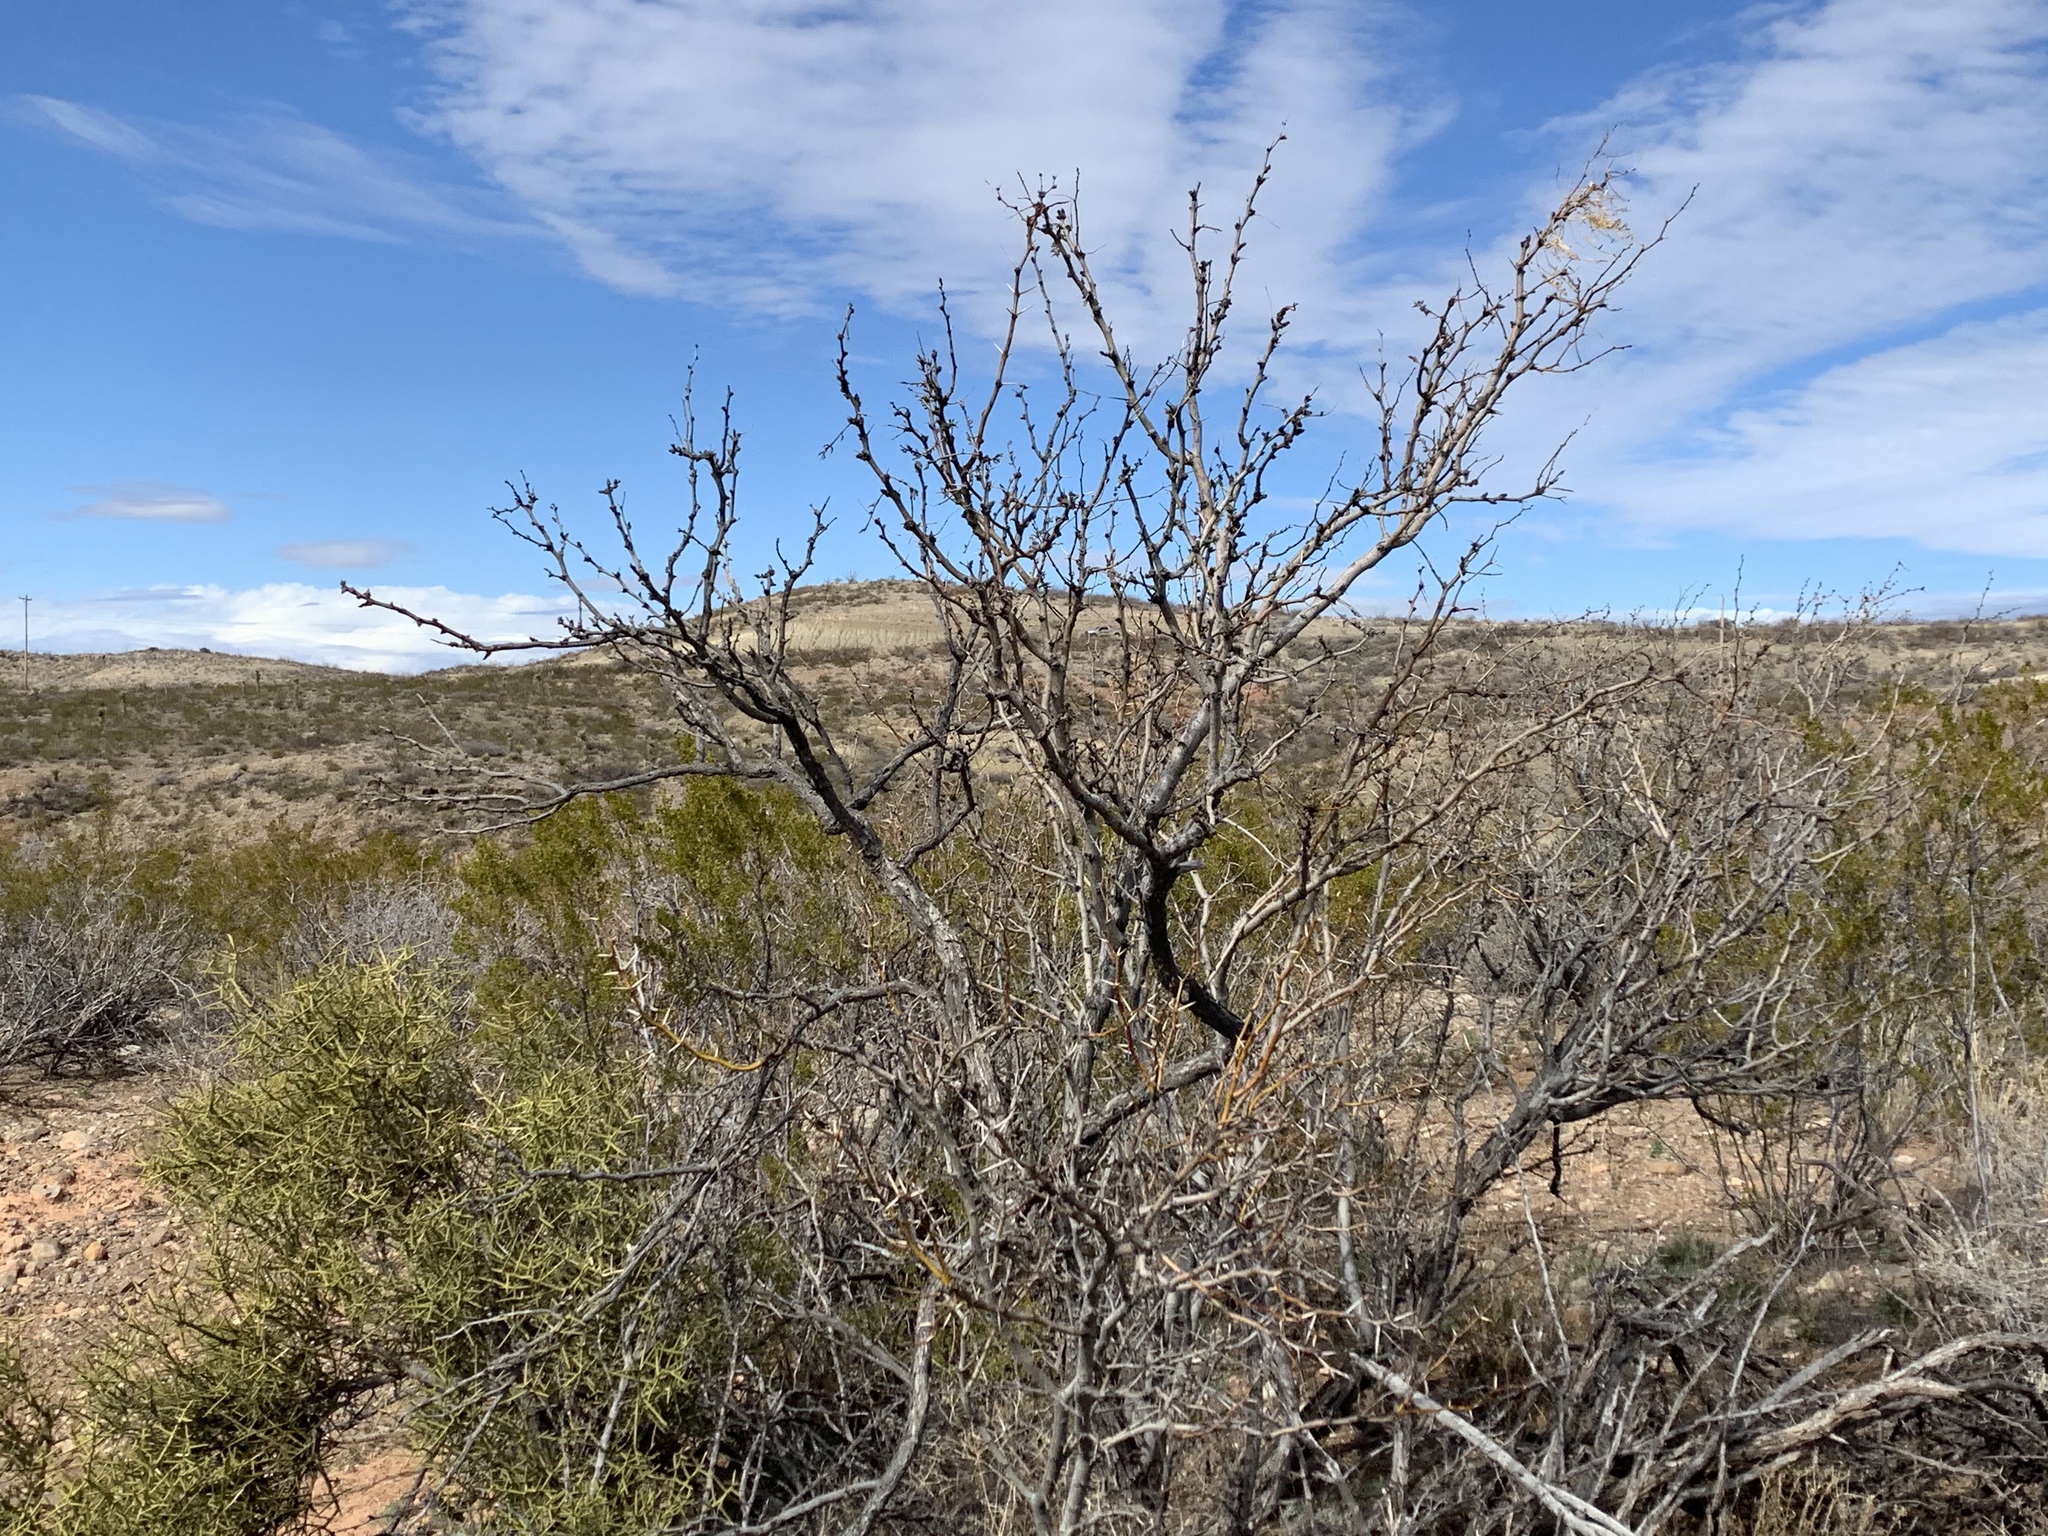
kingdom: Plantae
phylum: Tracheophyta
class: Magnoliopsida
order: Fabales
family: Fabaceae
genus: Prosopis
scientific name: Prosopis glandulosa
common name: Honey mesquite
